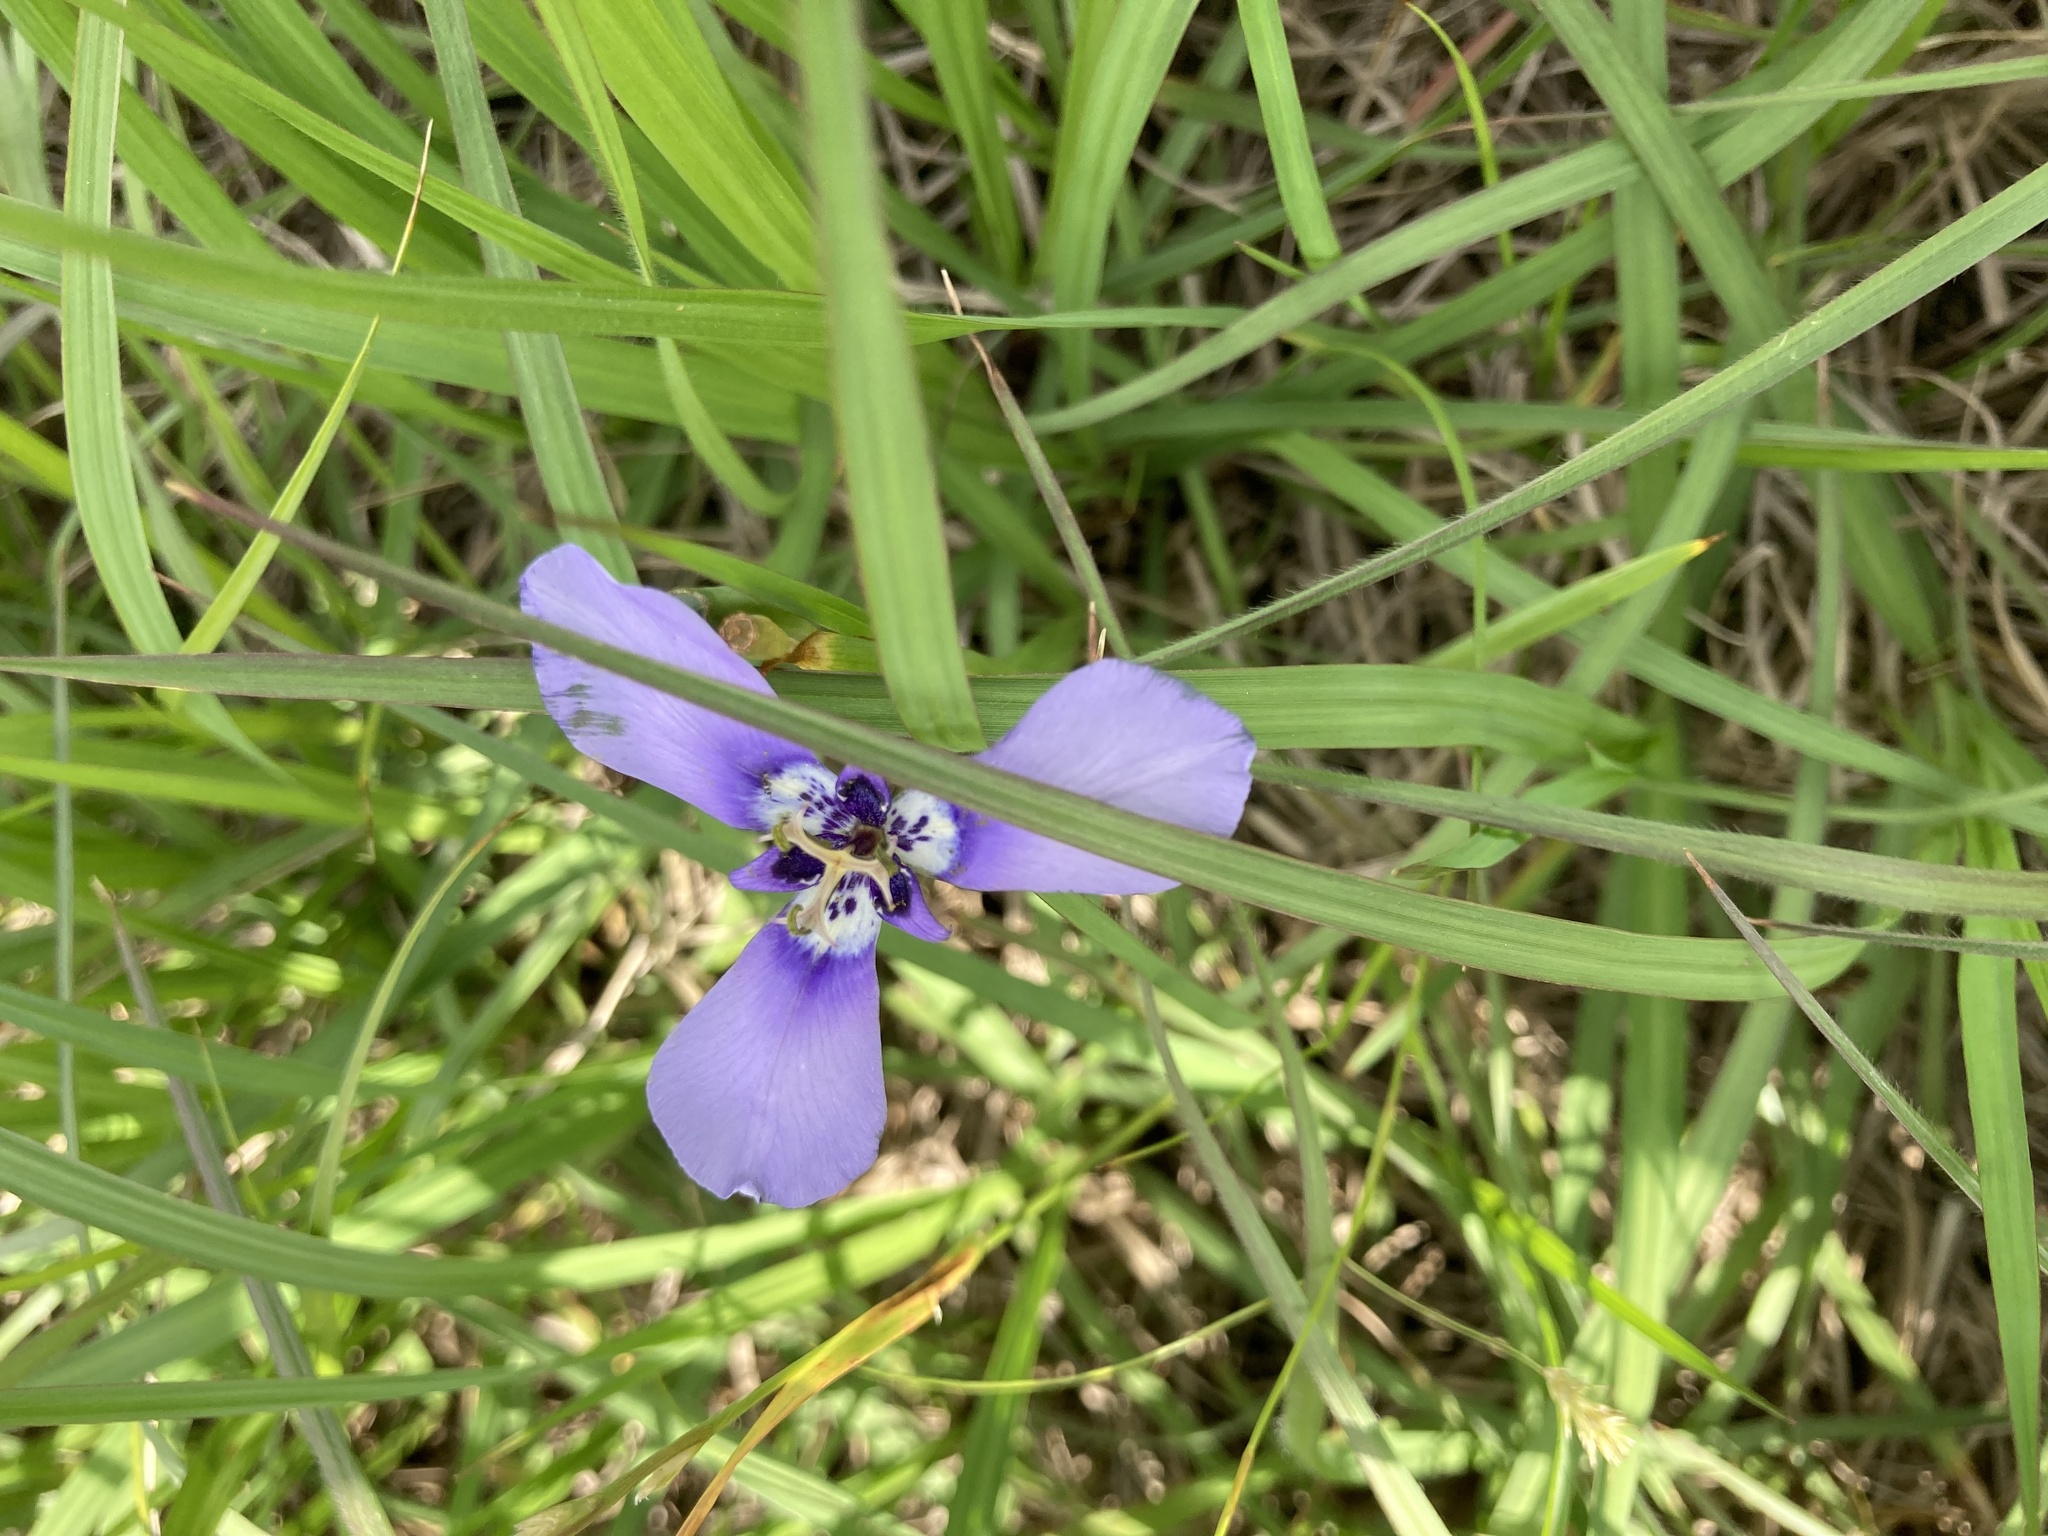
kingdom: Plantae
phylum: Tracheophyta
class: Liliopsida
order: Asparagales
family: Iridaceae
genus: Herbertia
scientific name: Herbertia lahue
